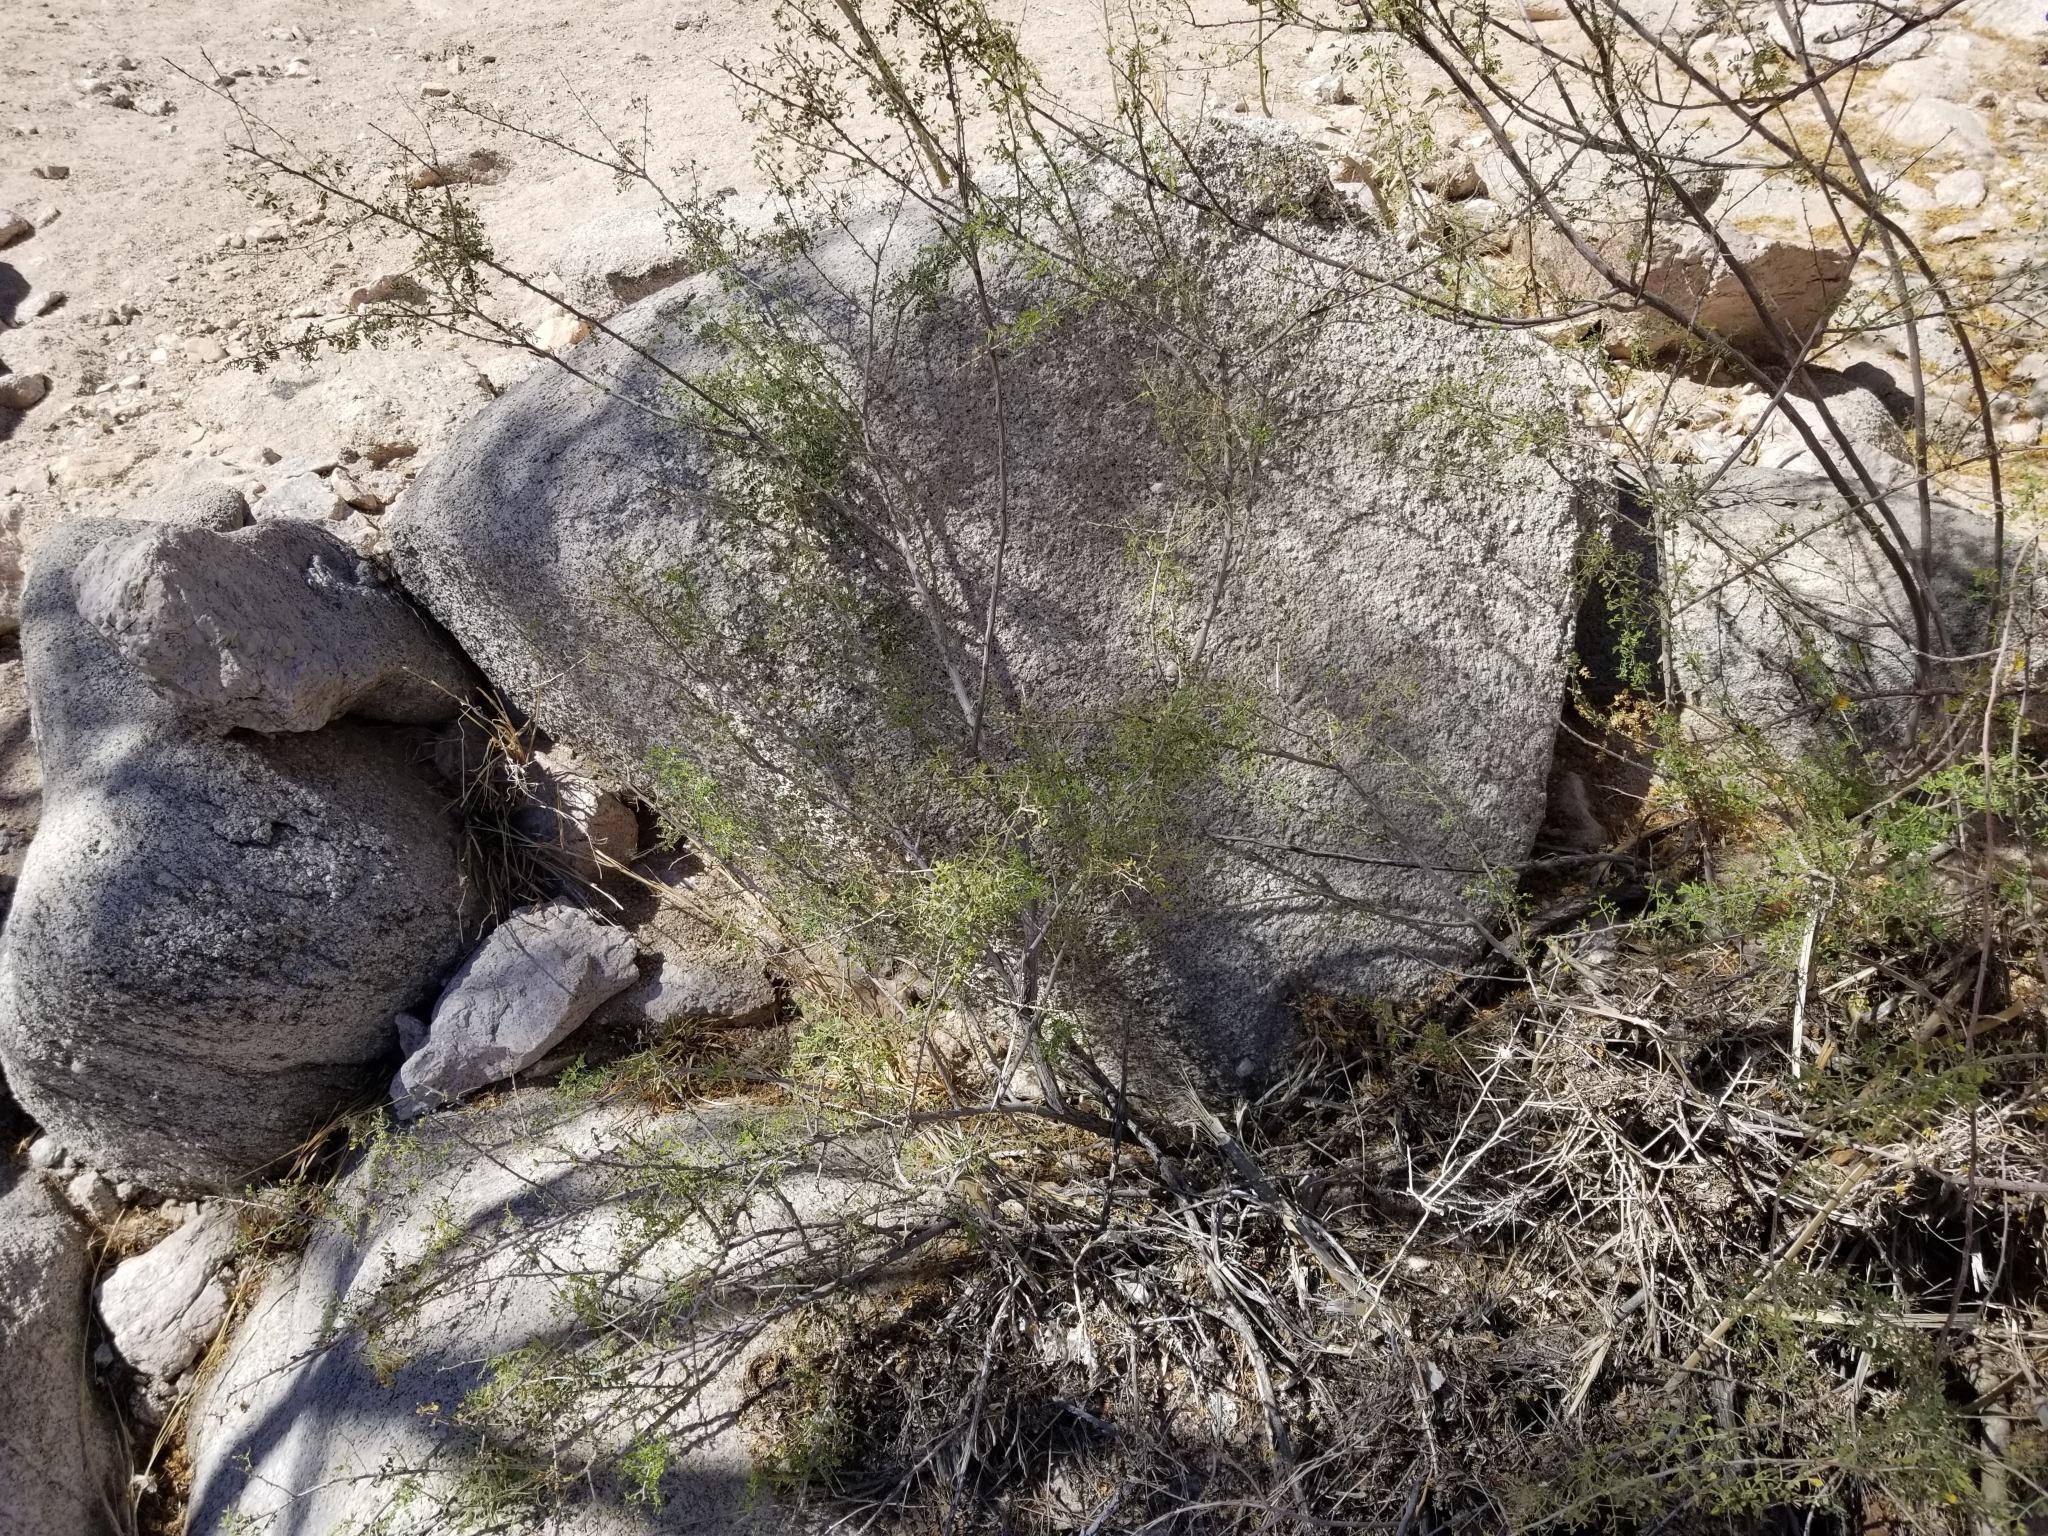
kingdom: Plantae
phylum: Tracheophyta
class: Magnoliopsida
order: Fabales
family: Fabaceae
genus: Senegalia
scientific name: Senegalia greggii
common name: Texas-mimosa
